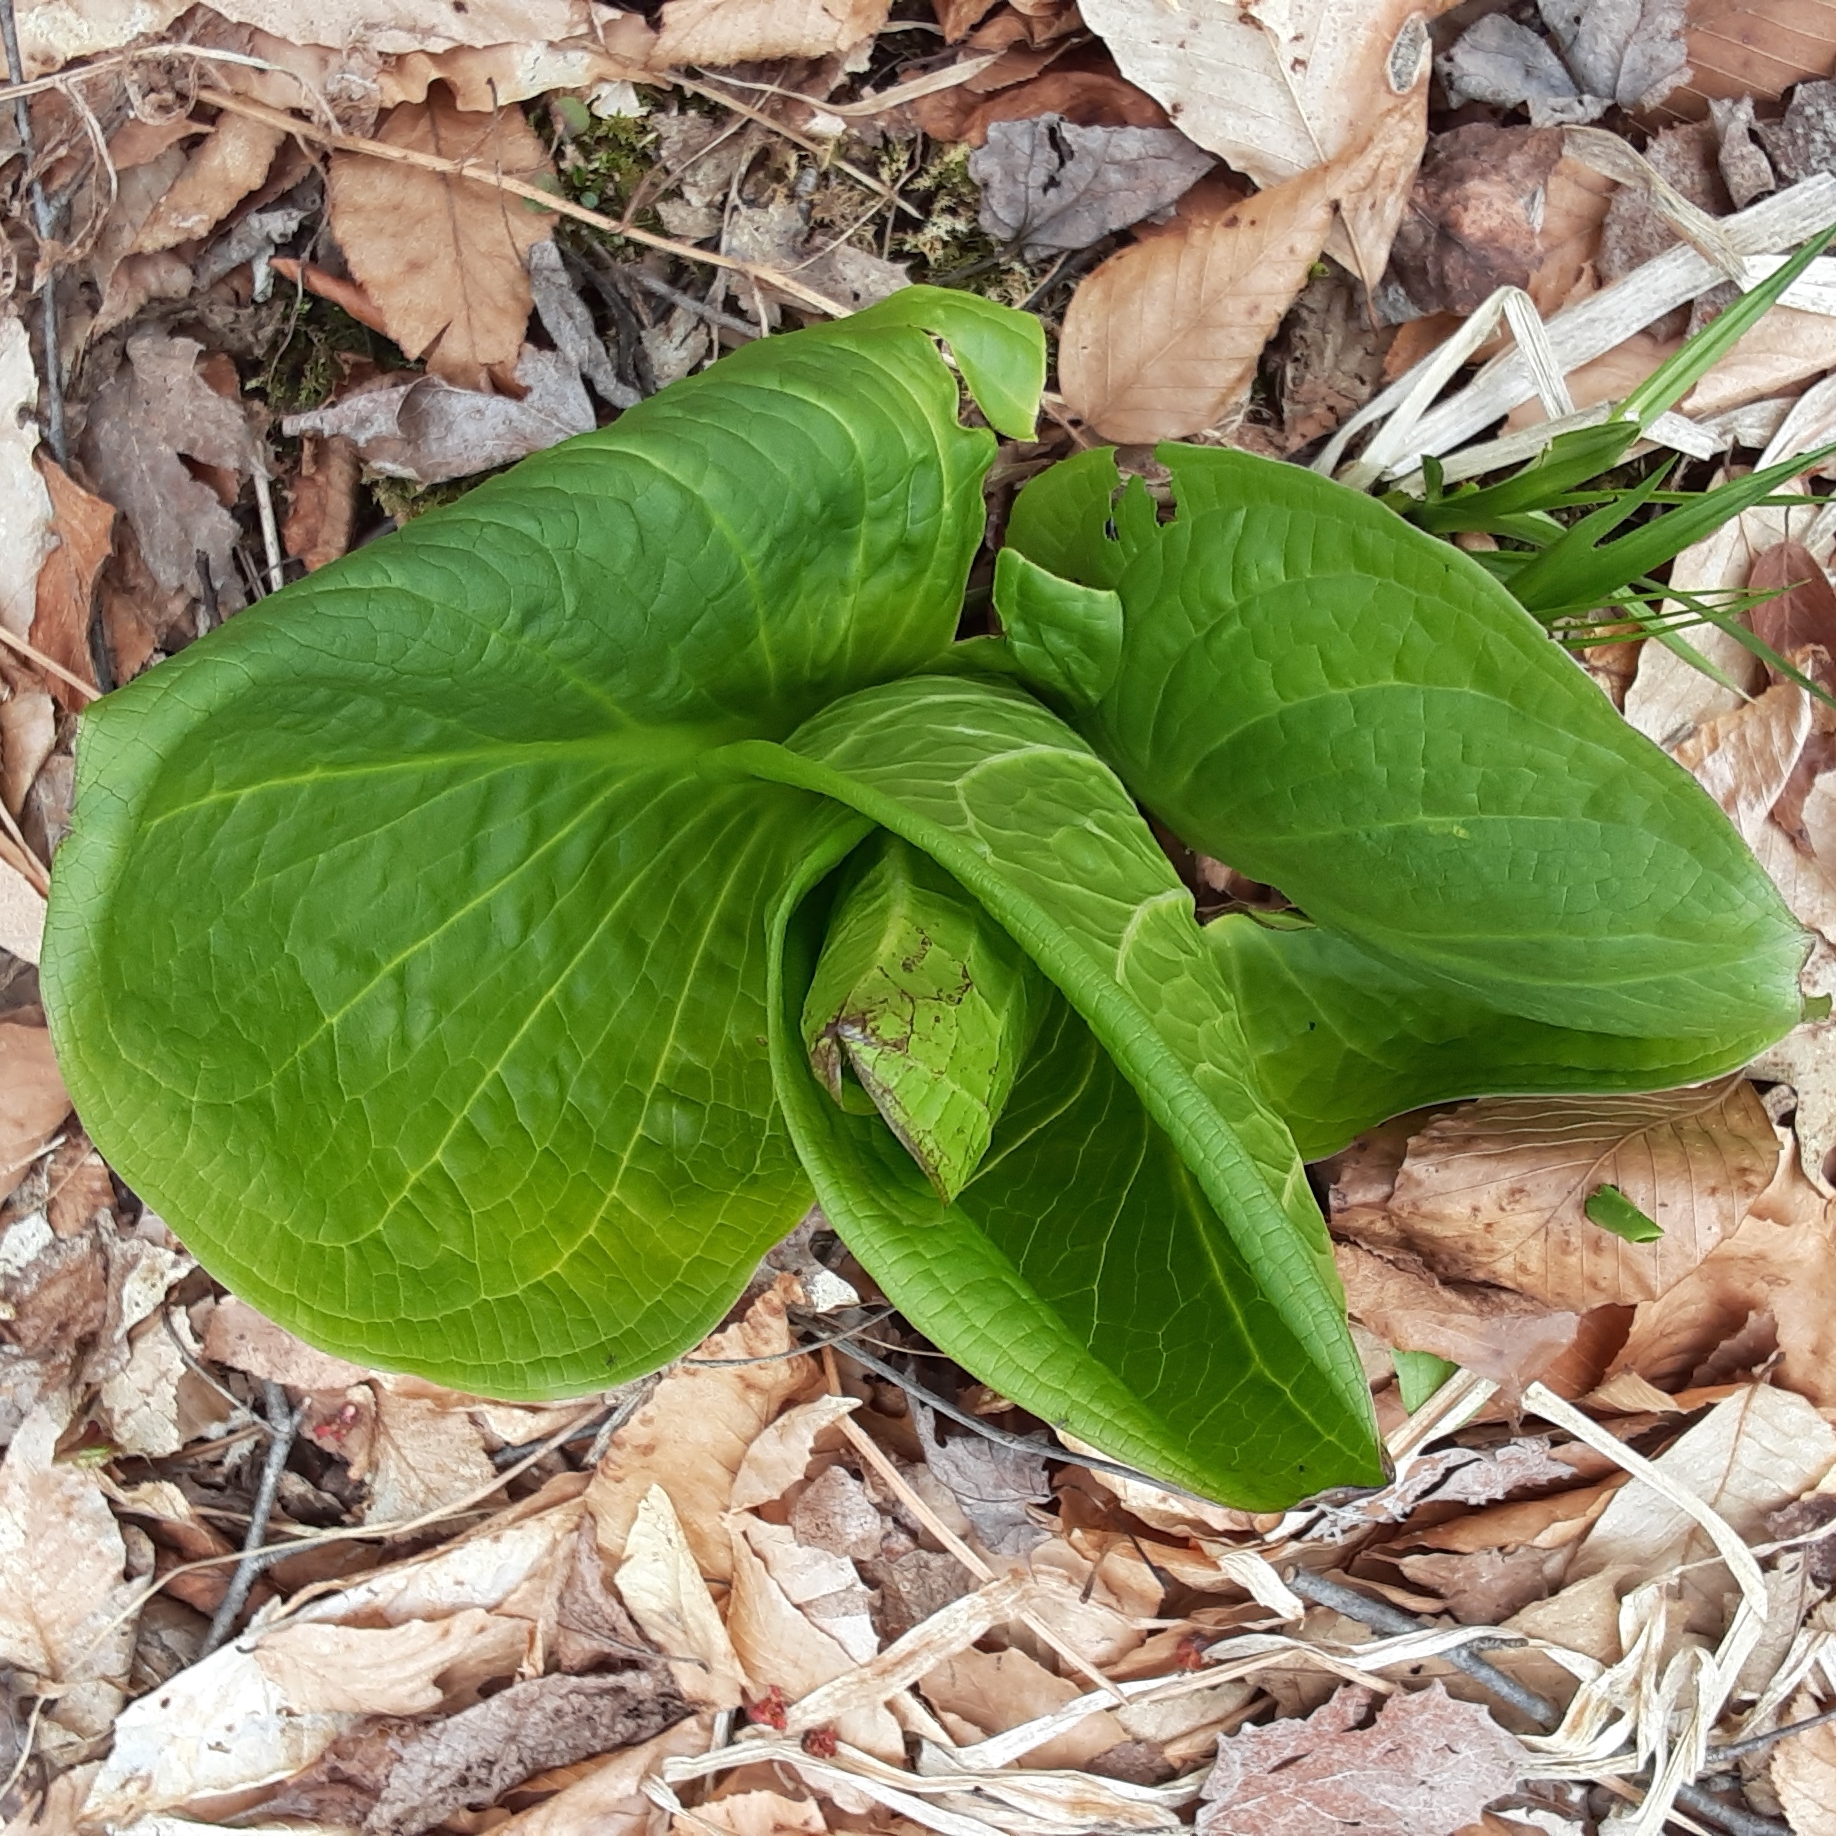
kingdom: Plantae
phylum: Tracheophyta
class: Liliopsida
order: Alismatales
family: Araceae
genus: Symplocarpus
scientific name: Symplocarpus foetidus
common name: Eastern skunk cabbage
